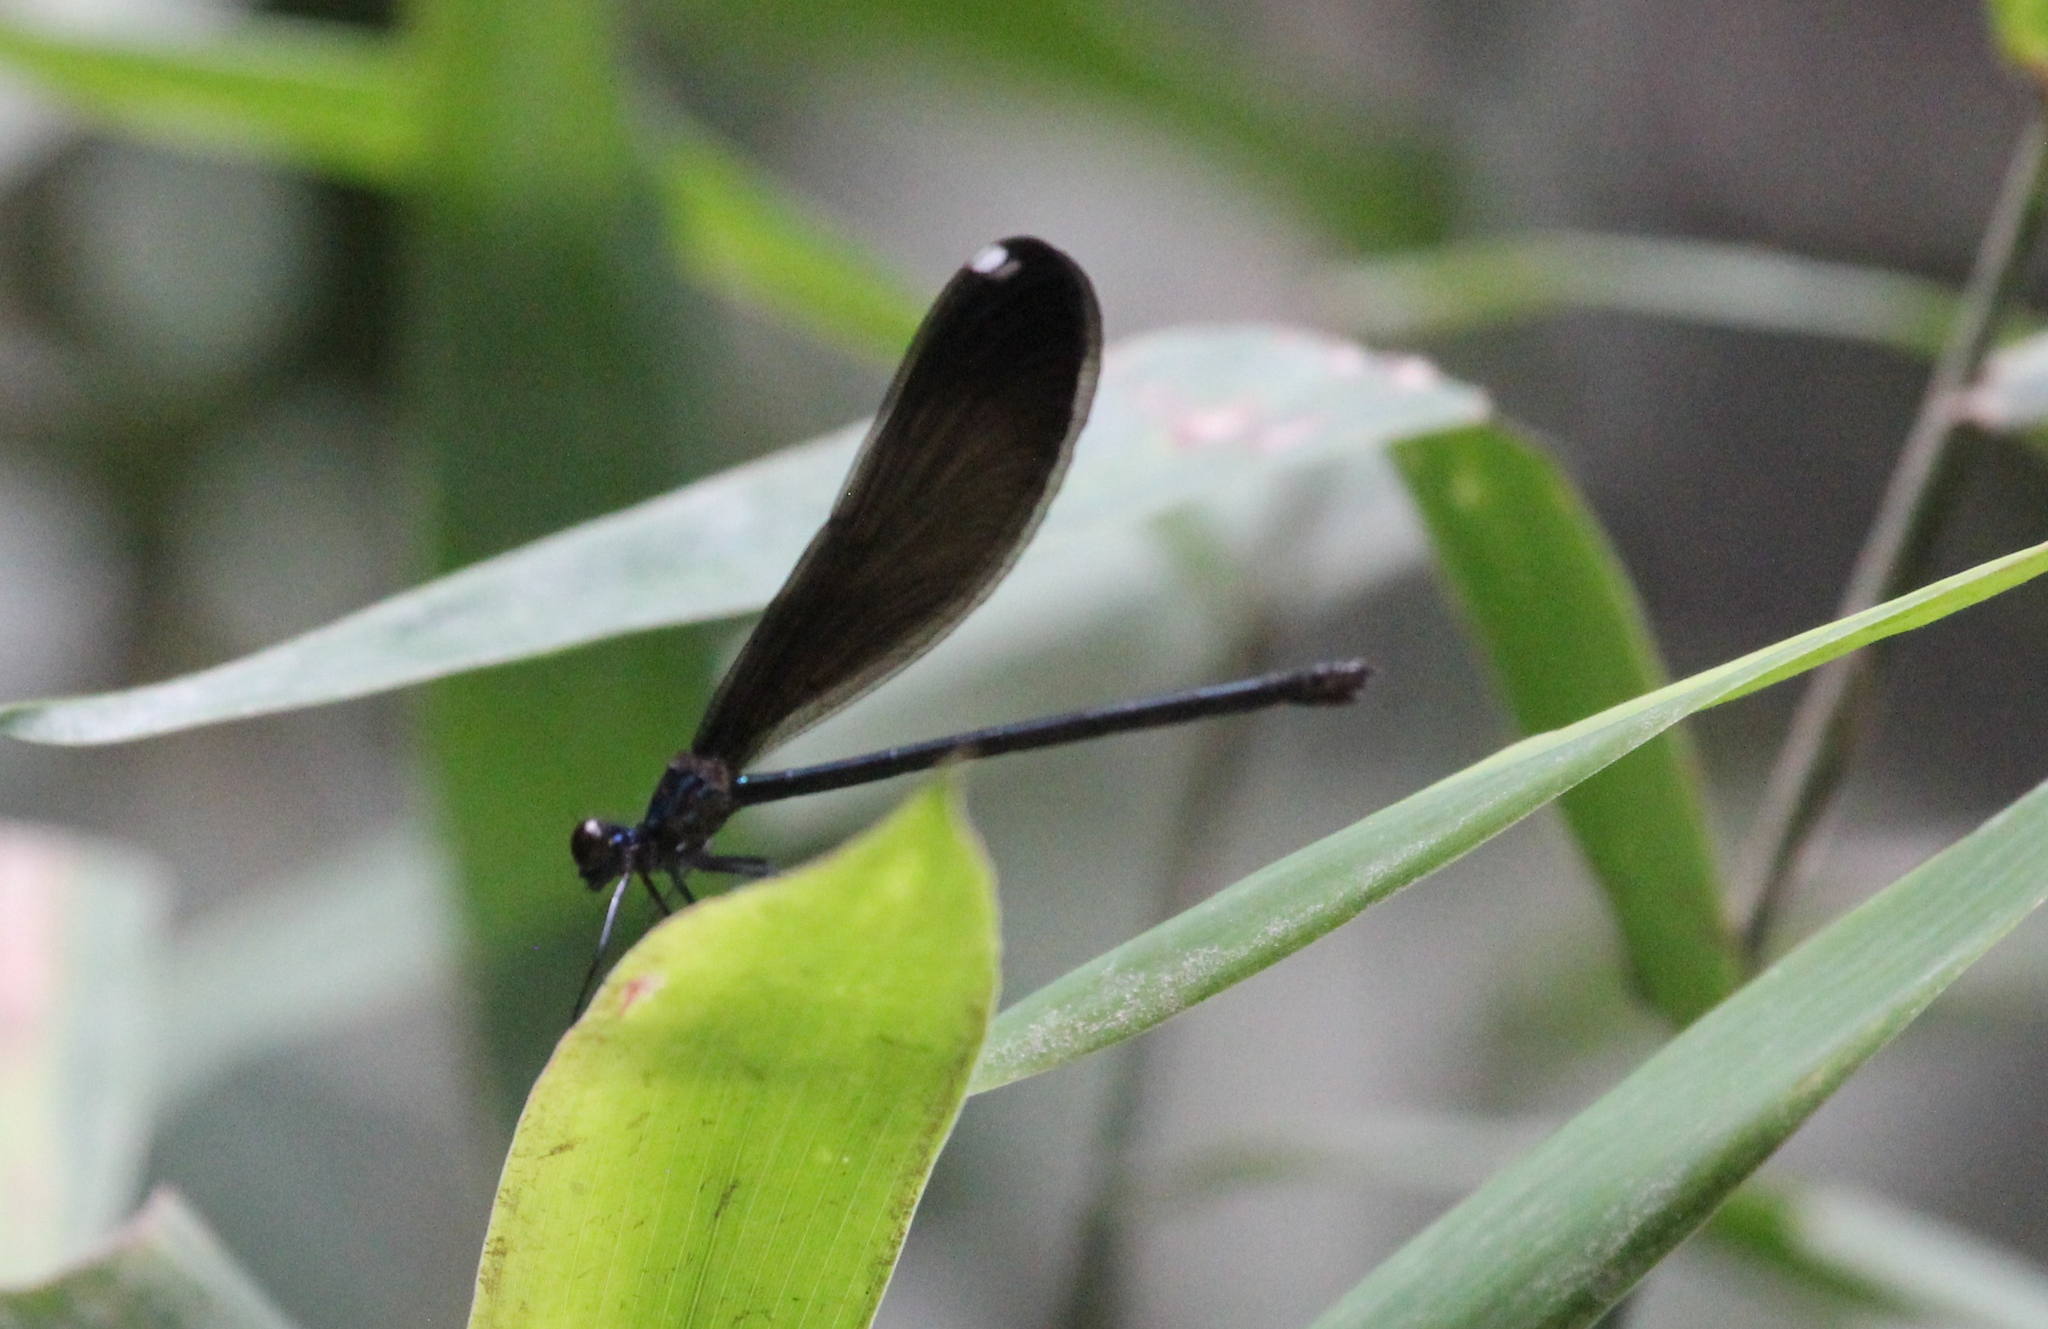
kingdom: Animalia
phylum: Arthropoda
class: Insecta
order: Odonata
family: Calopterygidae
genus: Calopteryx
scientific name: Calopteryx maculata
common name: Ebony jewelwing
